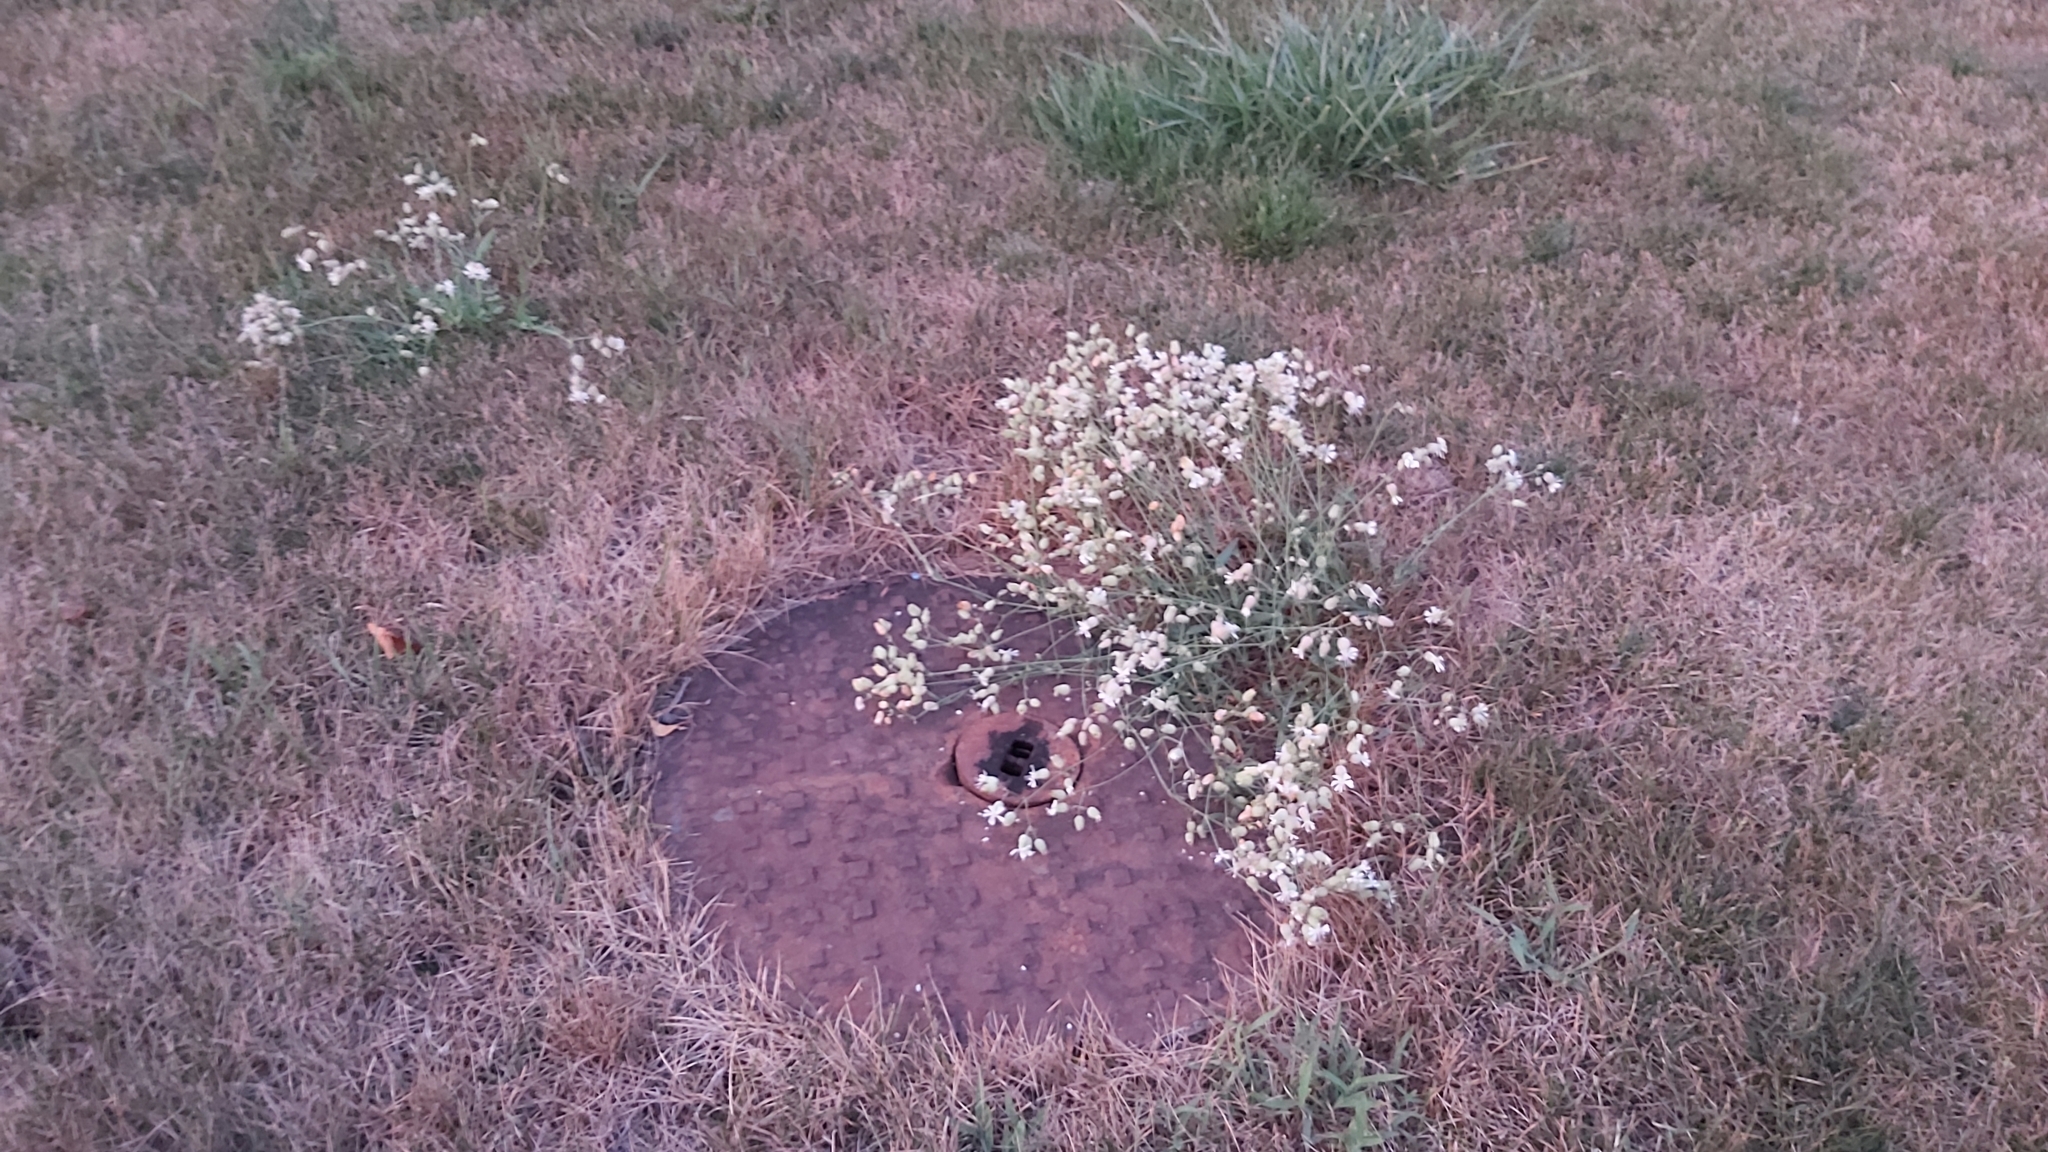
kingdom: Plantae
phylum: Tracheophyta
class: Magnoliopsida
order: Caryophyllales
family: Caryophyllaceae
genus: Silene
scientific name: Silene vulgaris
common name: Bladder campion
